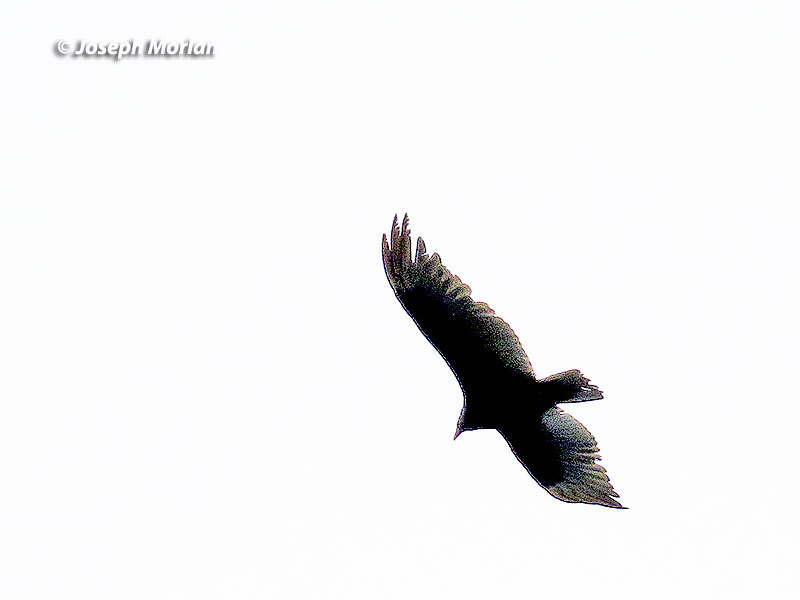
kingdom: Animalia
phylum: Chordata
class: Aves
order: Accipitriformes
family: Cathartidae
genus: Cathartes
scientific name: Cathartes aura
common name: Turkey vulture
